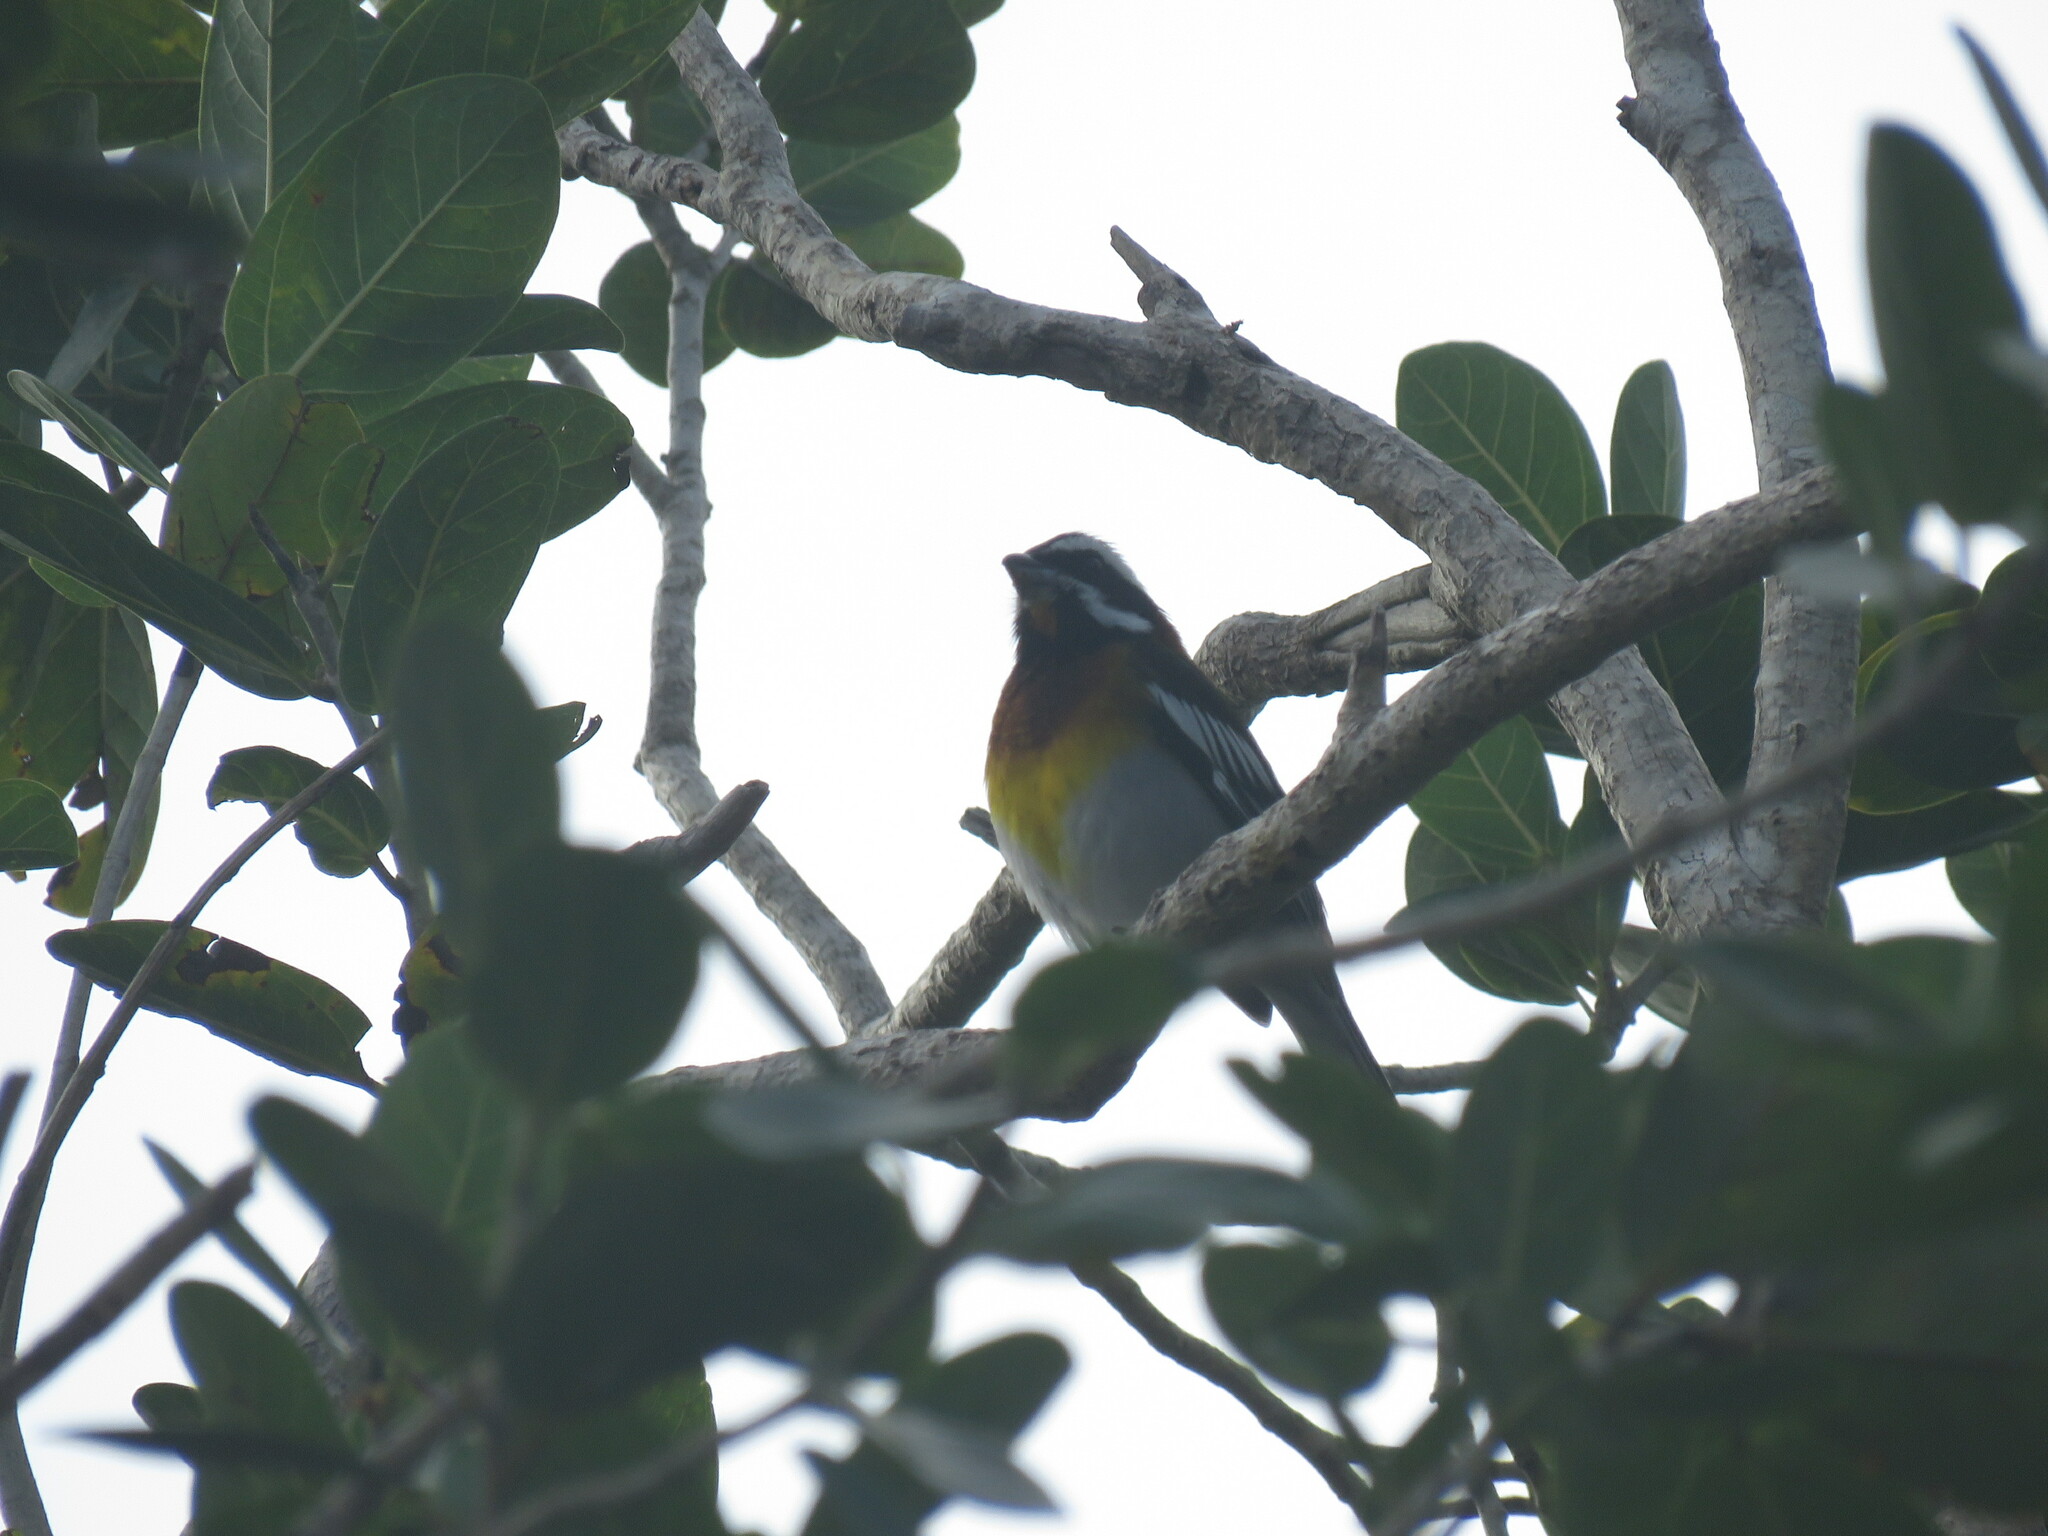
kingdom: Animalia
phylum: Chordata
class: Aves
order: Passeriformes
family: Spindalidae
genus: Spindalis
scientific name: Spindalis zena
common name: Western spindalis
